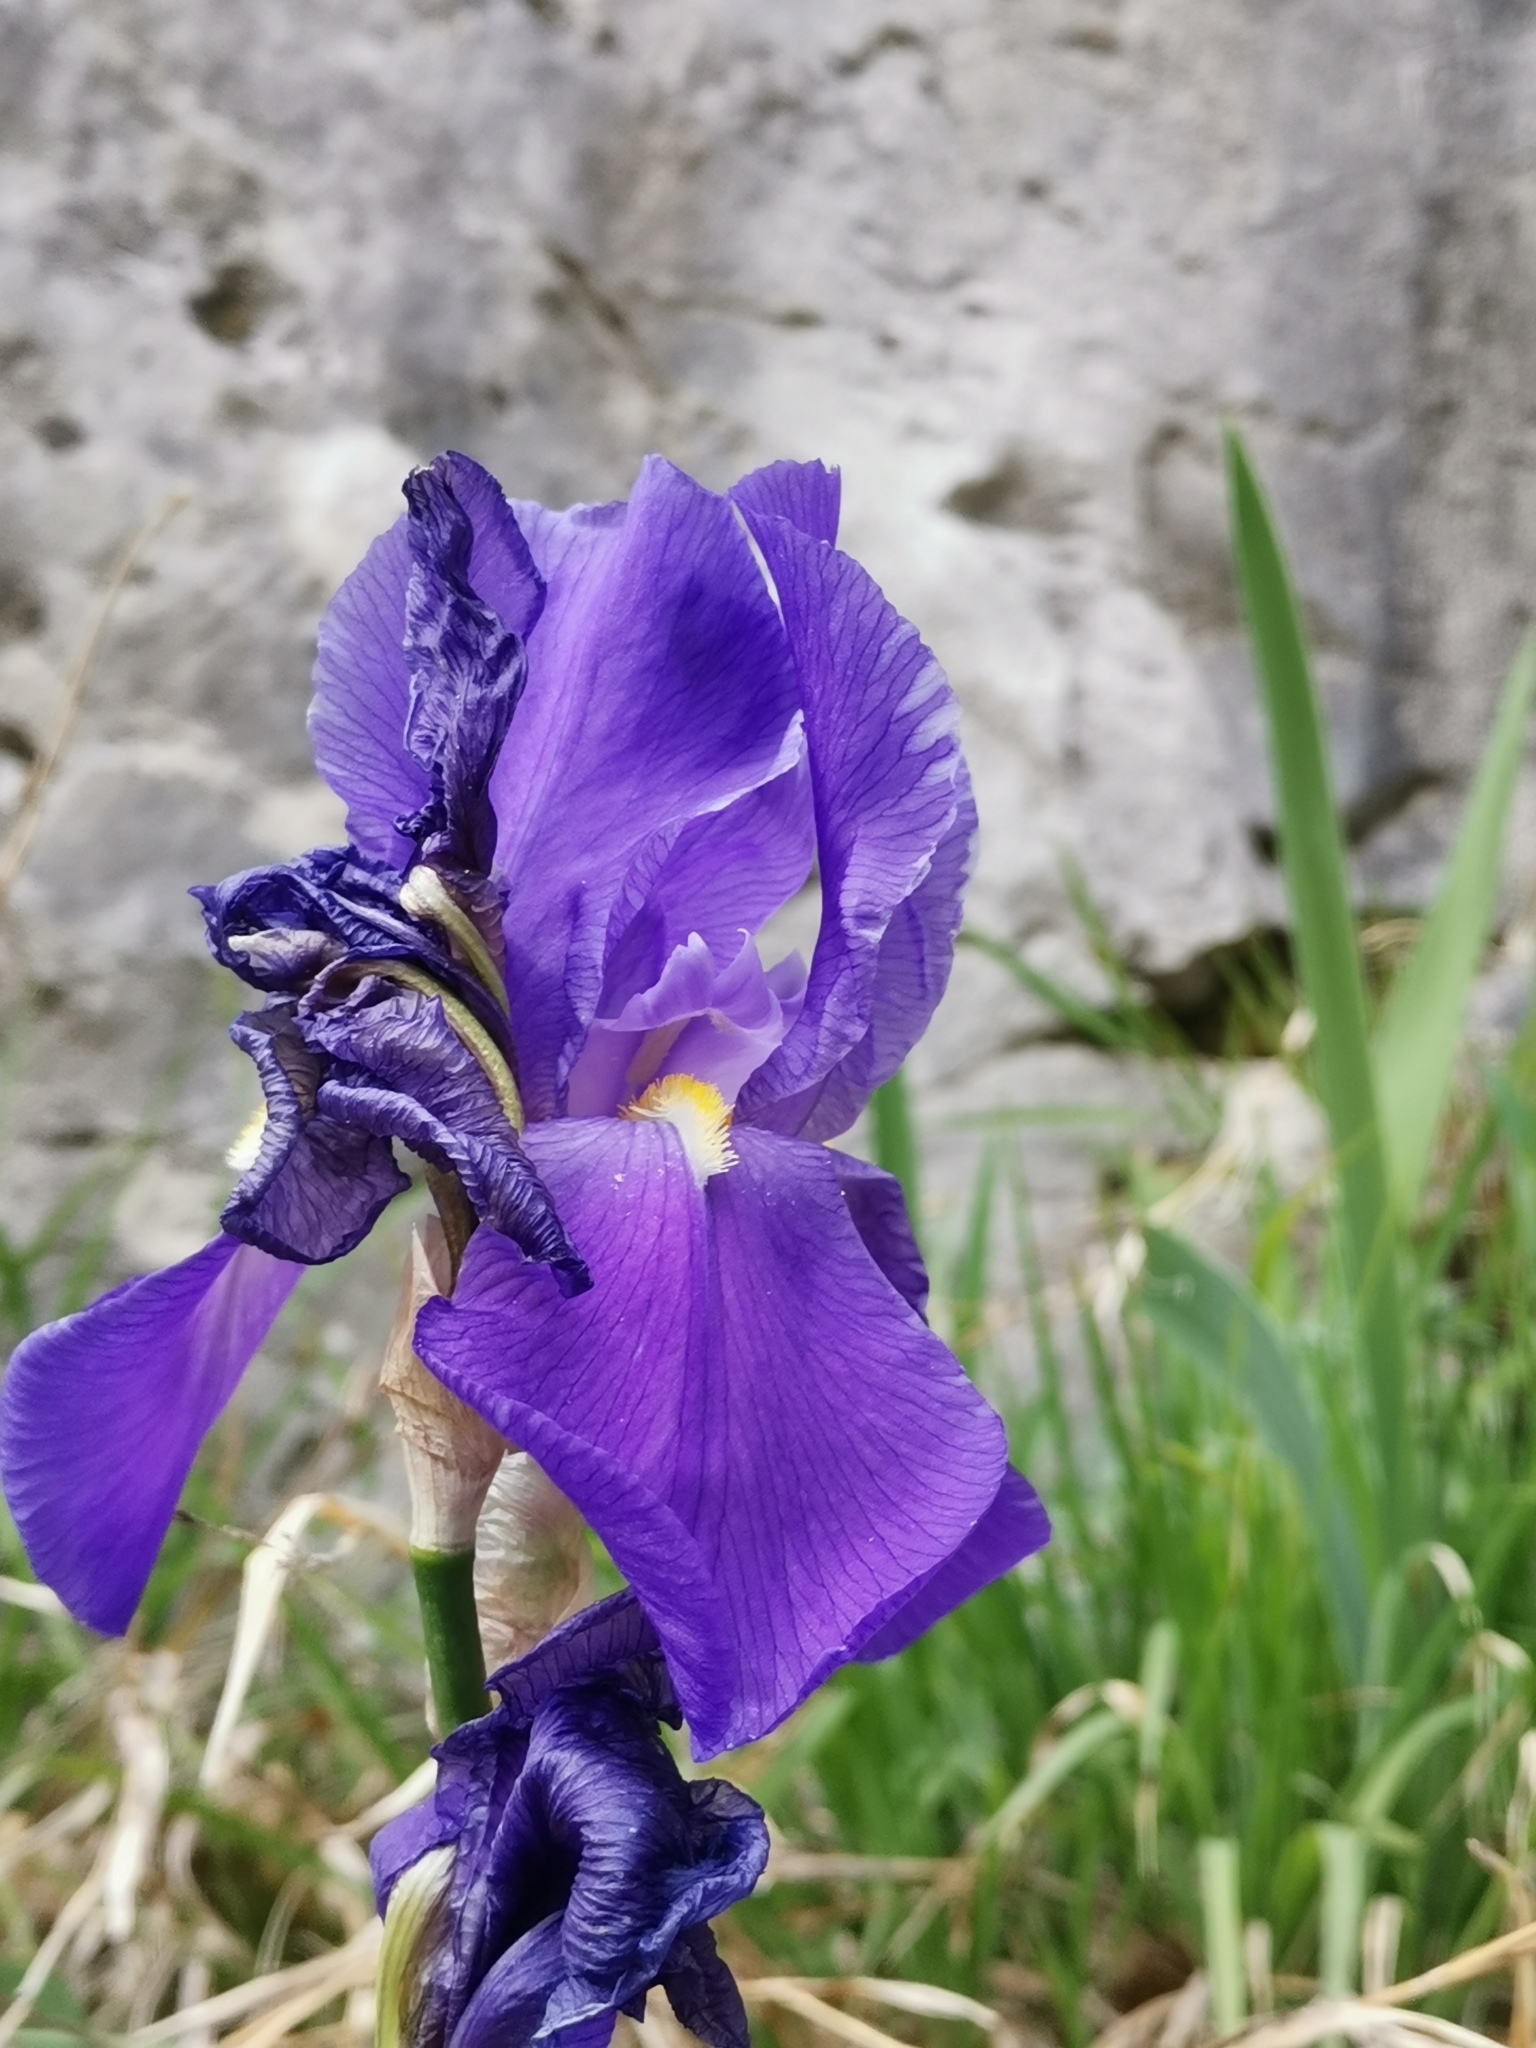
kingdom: Plantae
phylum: Tracheophyta
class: Liliopsida
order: Asparagales
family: Iridaceae
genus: Iris
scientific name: Iris pallida
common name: Sweet iris
